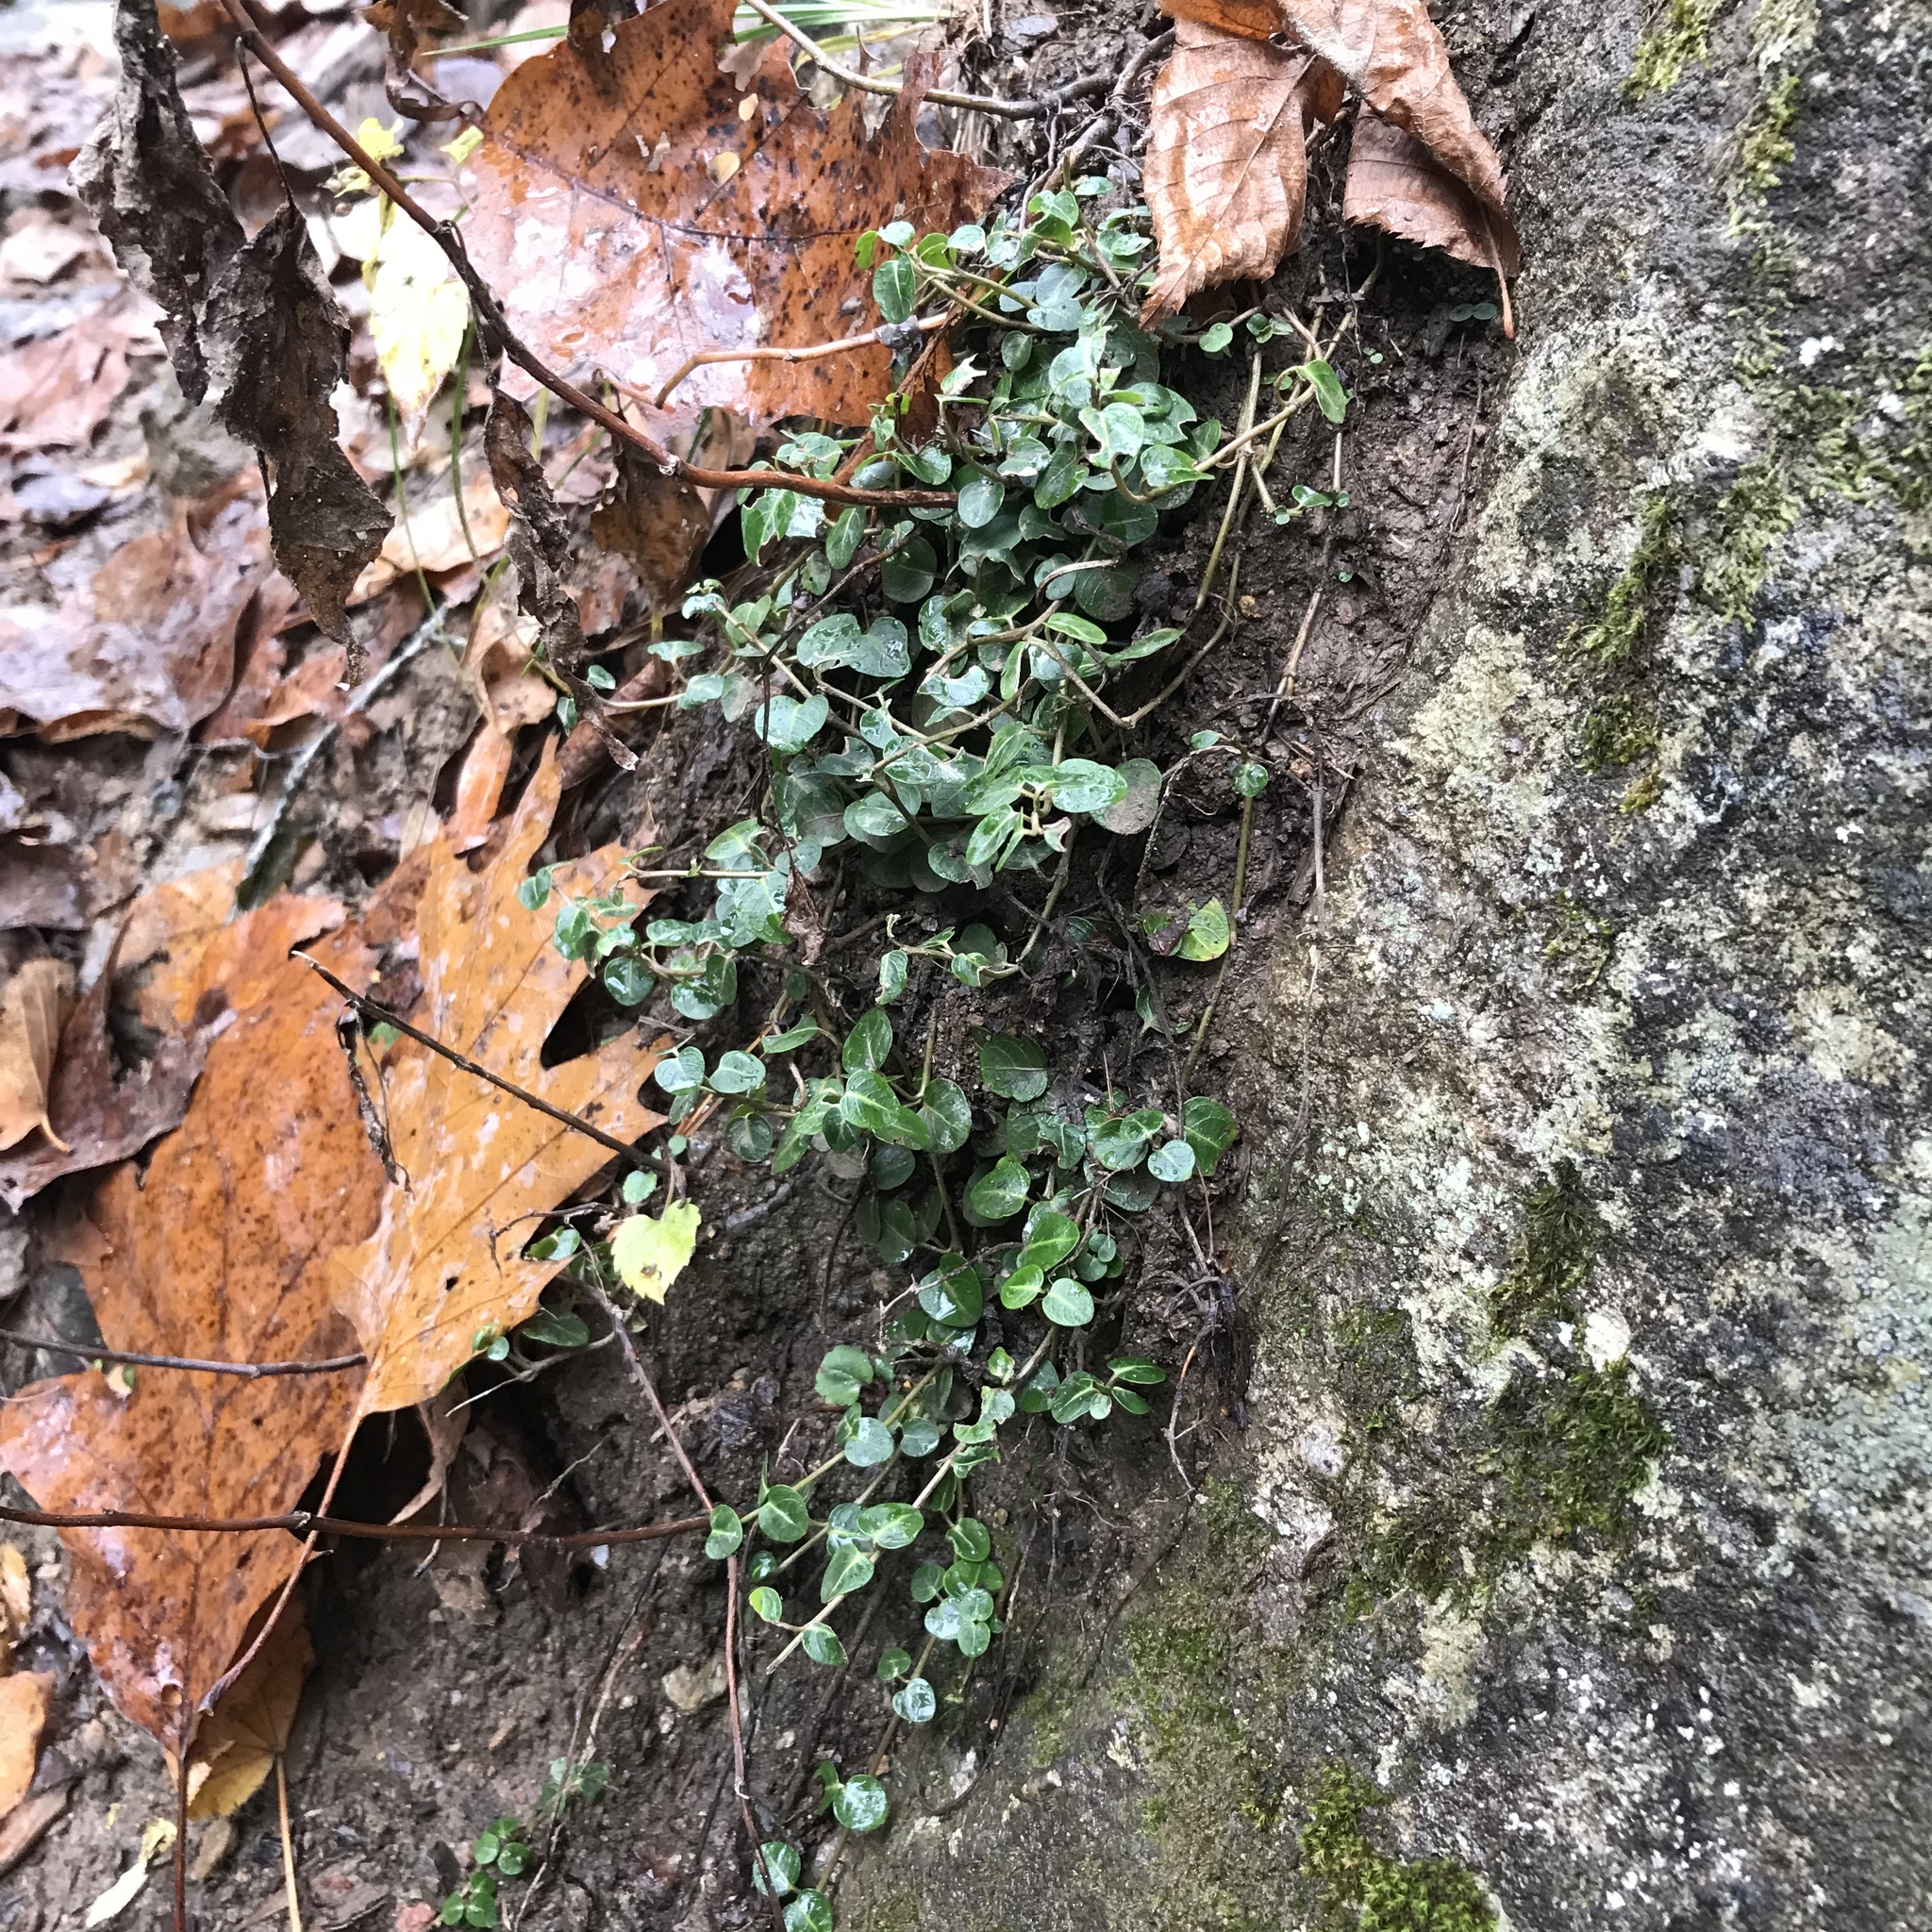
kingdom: Plantae
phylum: Tracheophyta
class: Magnoliopsida
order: Gentianales
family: Rubiaceae
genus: Mitchella
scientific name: Mitchella repens
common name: Partridge-berry
